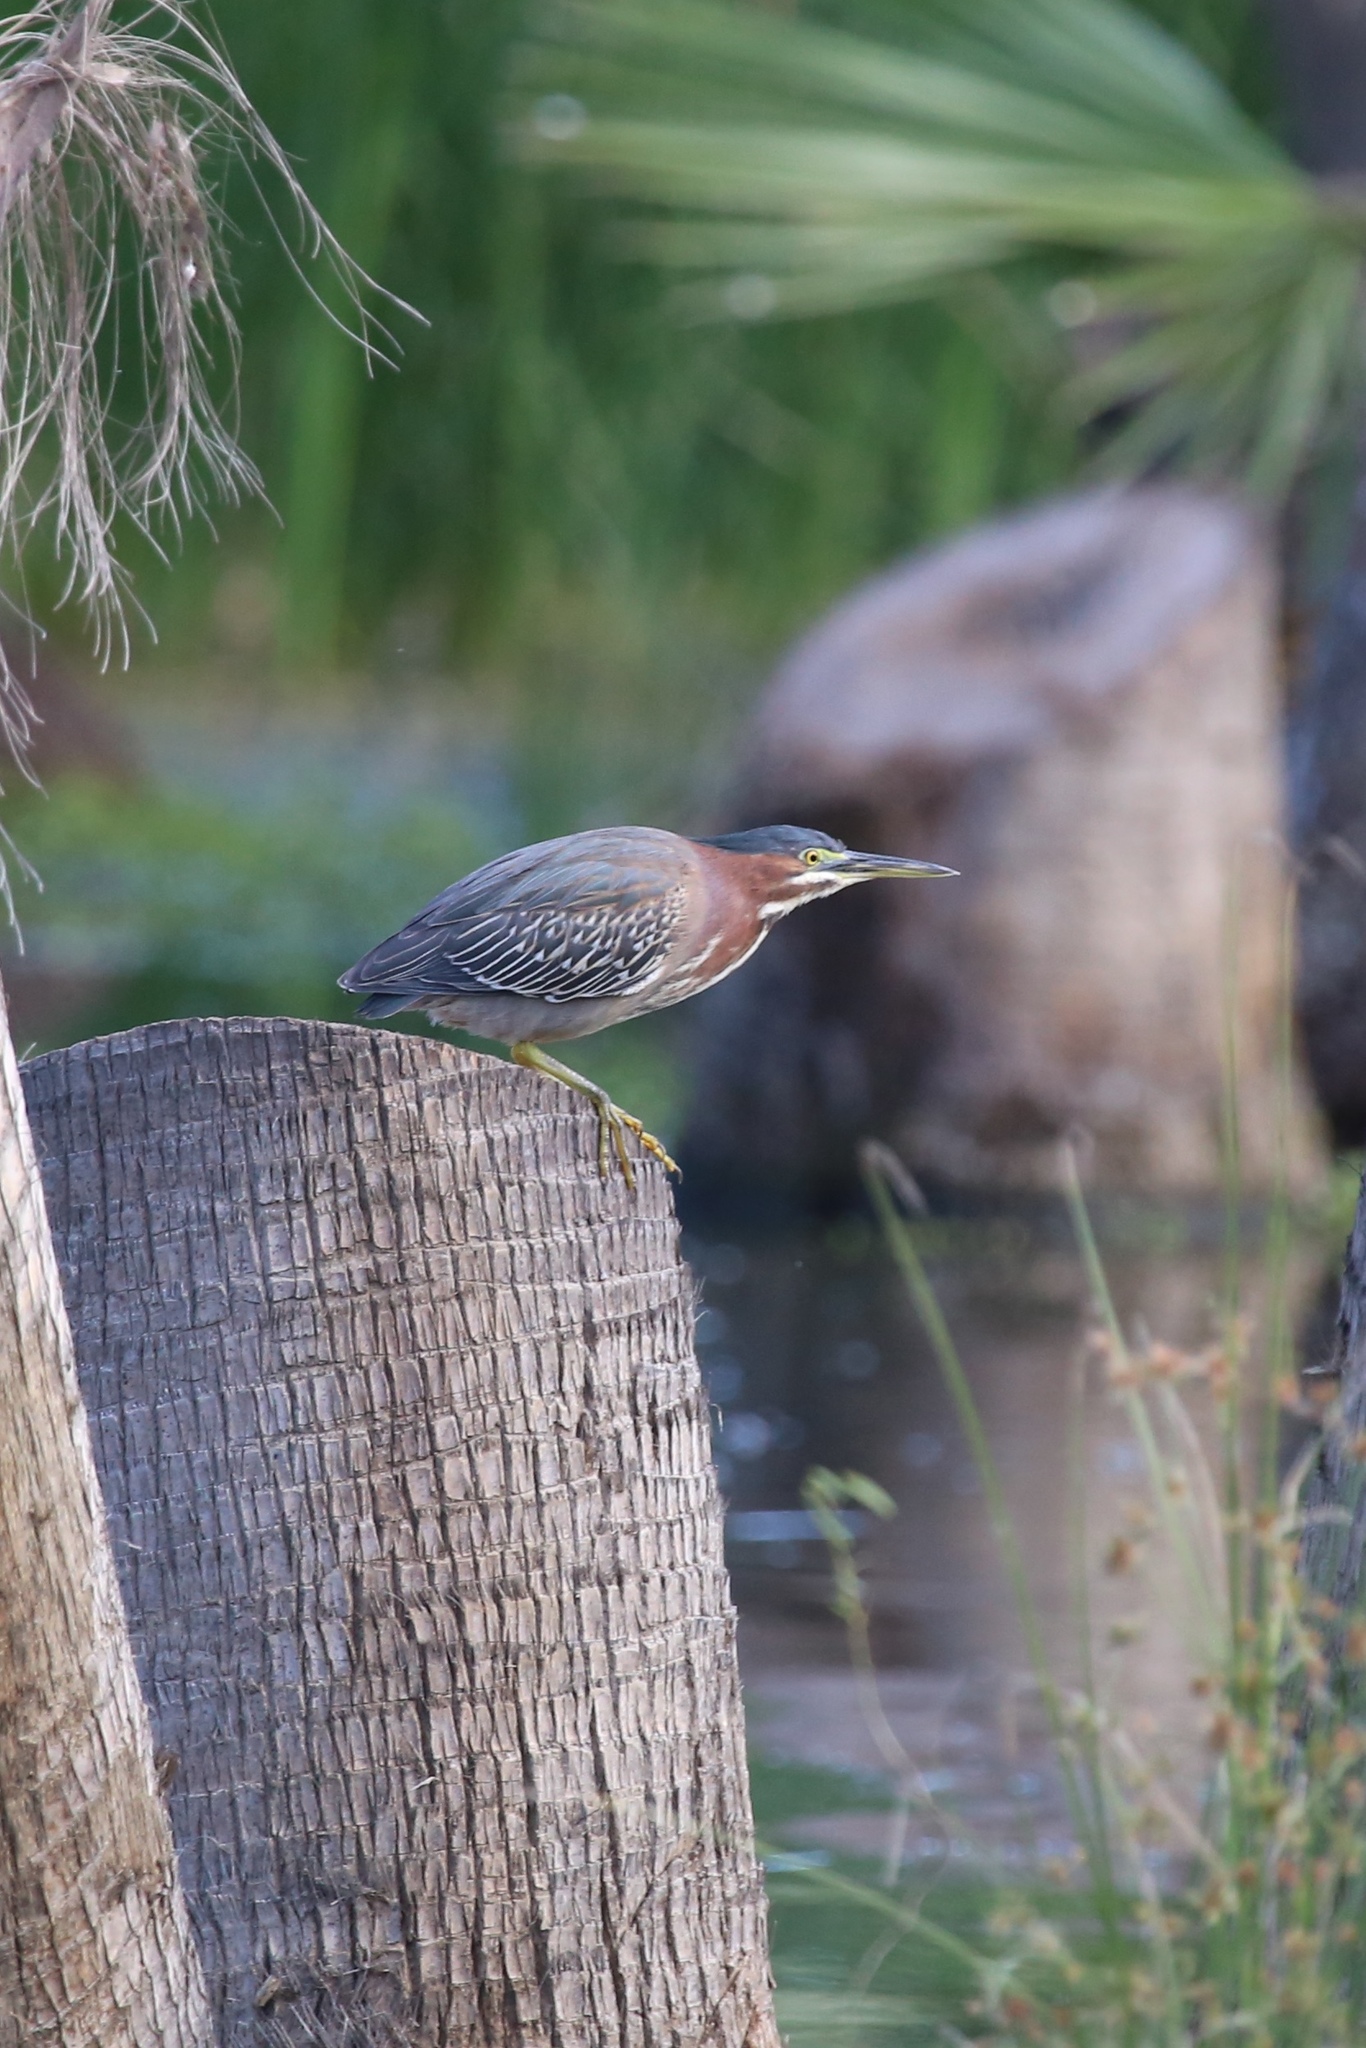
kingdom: Animalia
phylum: Chordata
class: Aves
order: Pelecaniformes
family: Ardeidae
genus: Butorides
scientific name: Butorides virescens
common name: Green heron
